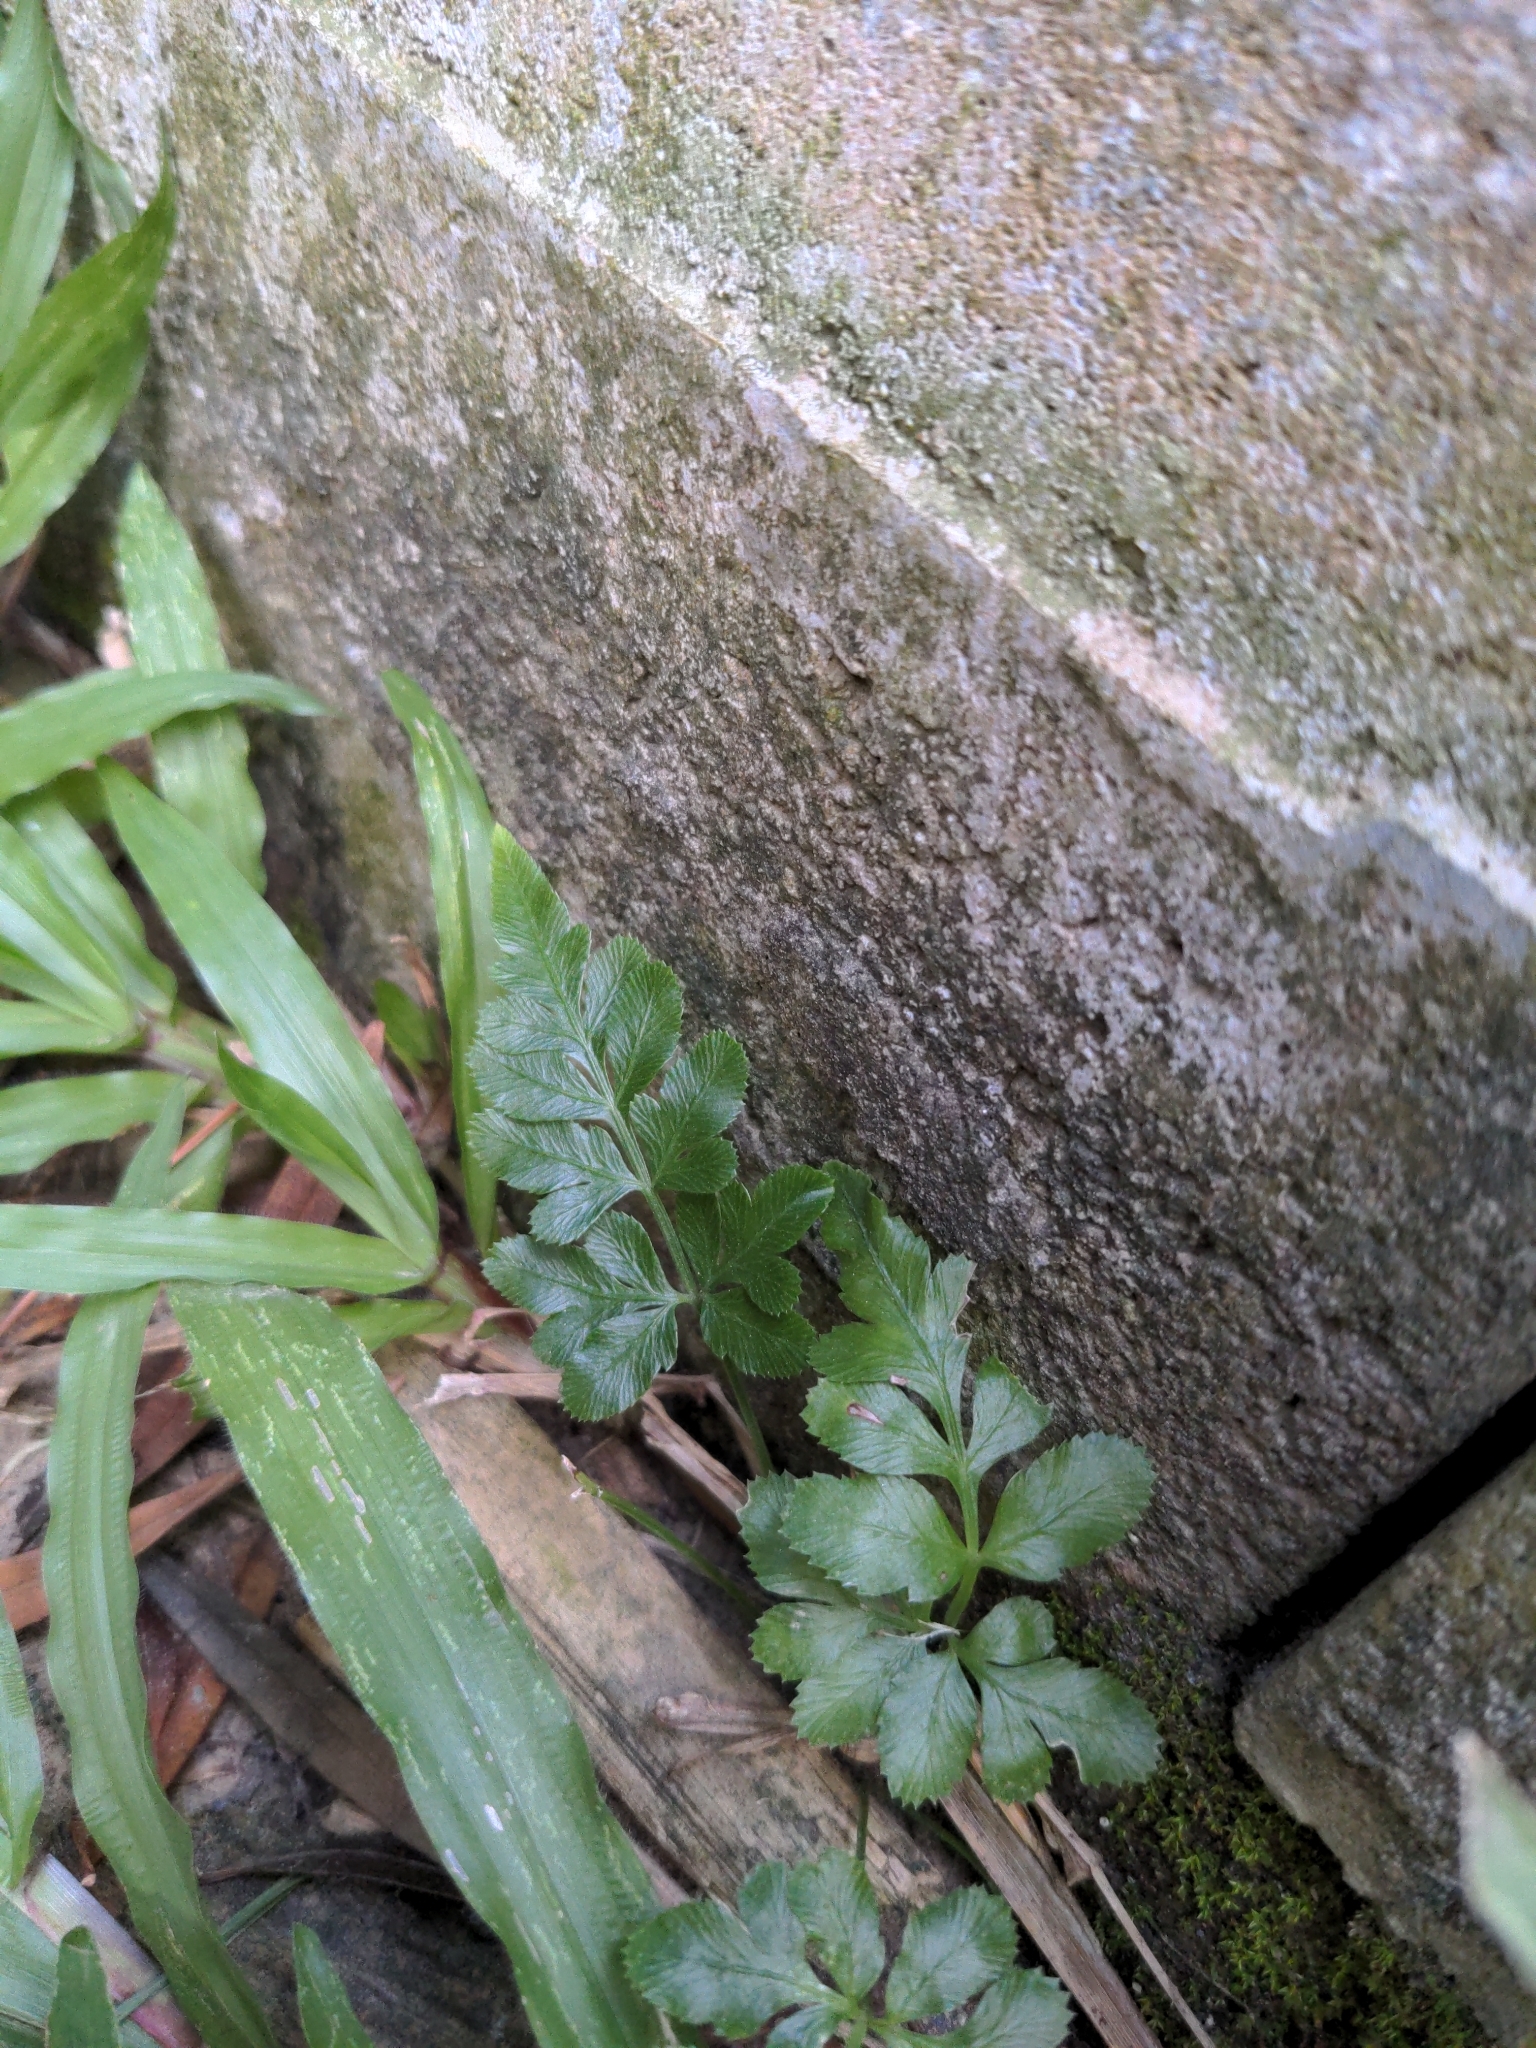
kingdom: Plantae
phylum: Tracheophyta
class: Polypodiopsida
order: Polypodiales
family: Pteridaceae
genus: Pteris
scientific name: Pteris ensiformis
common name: Sword brake
